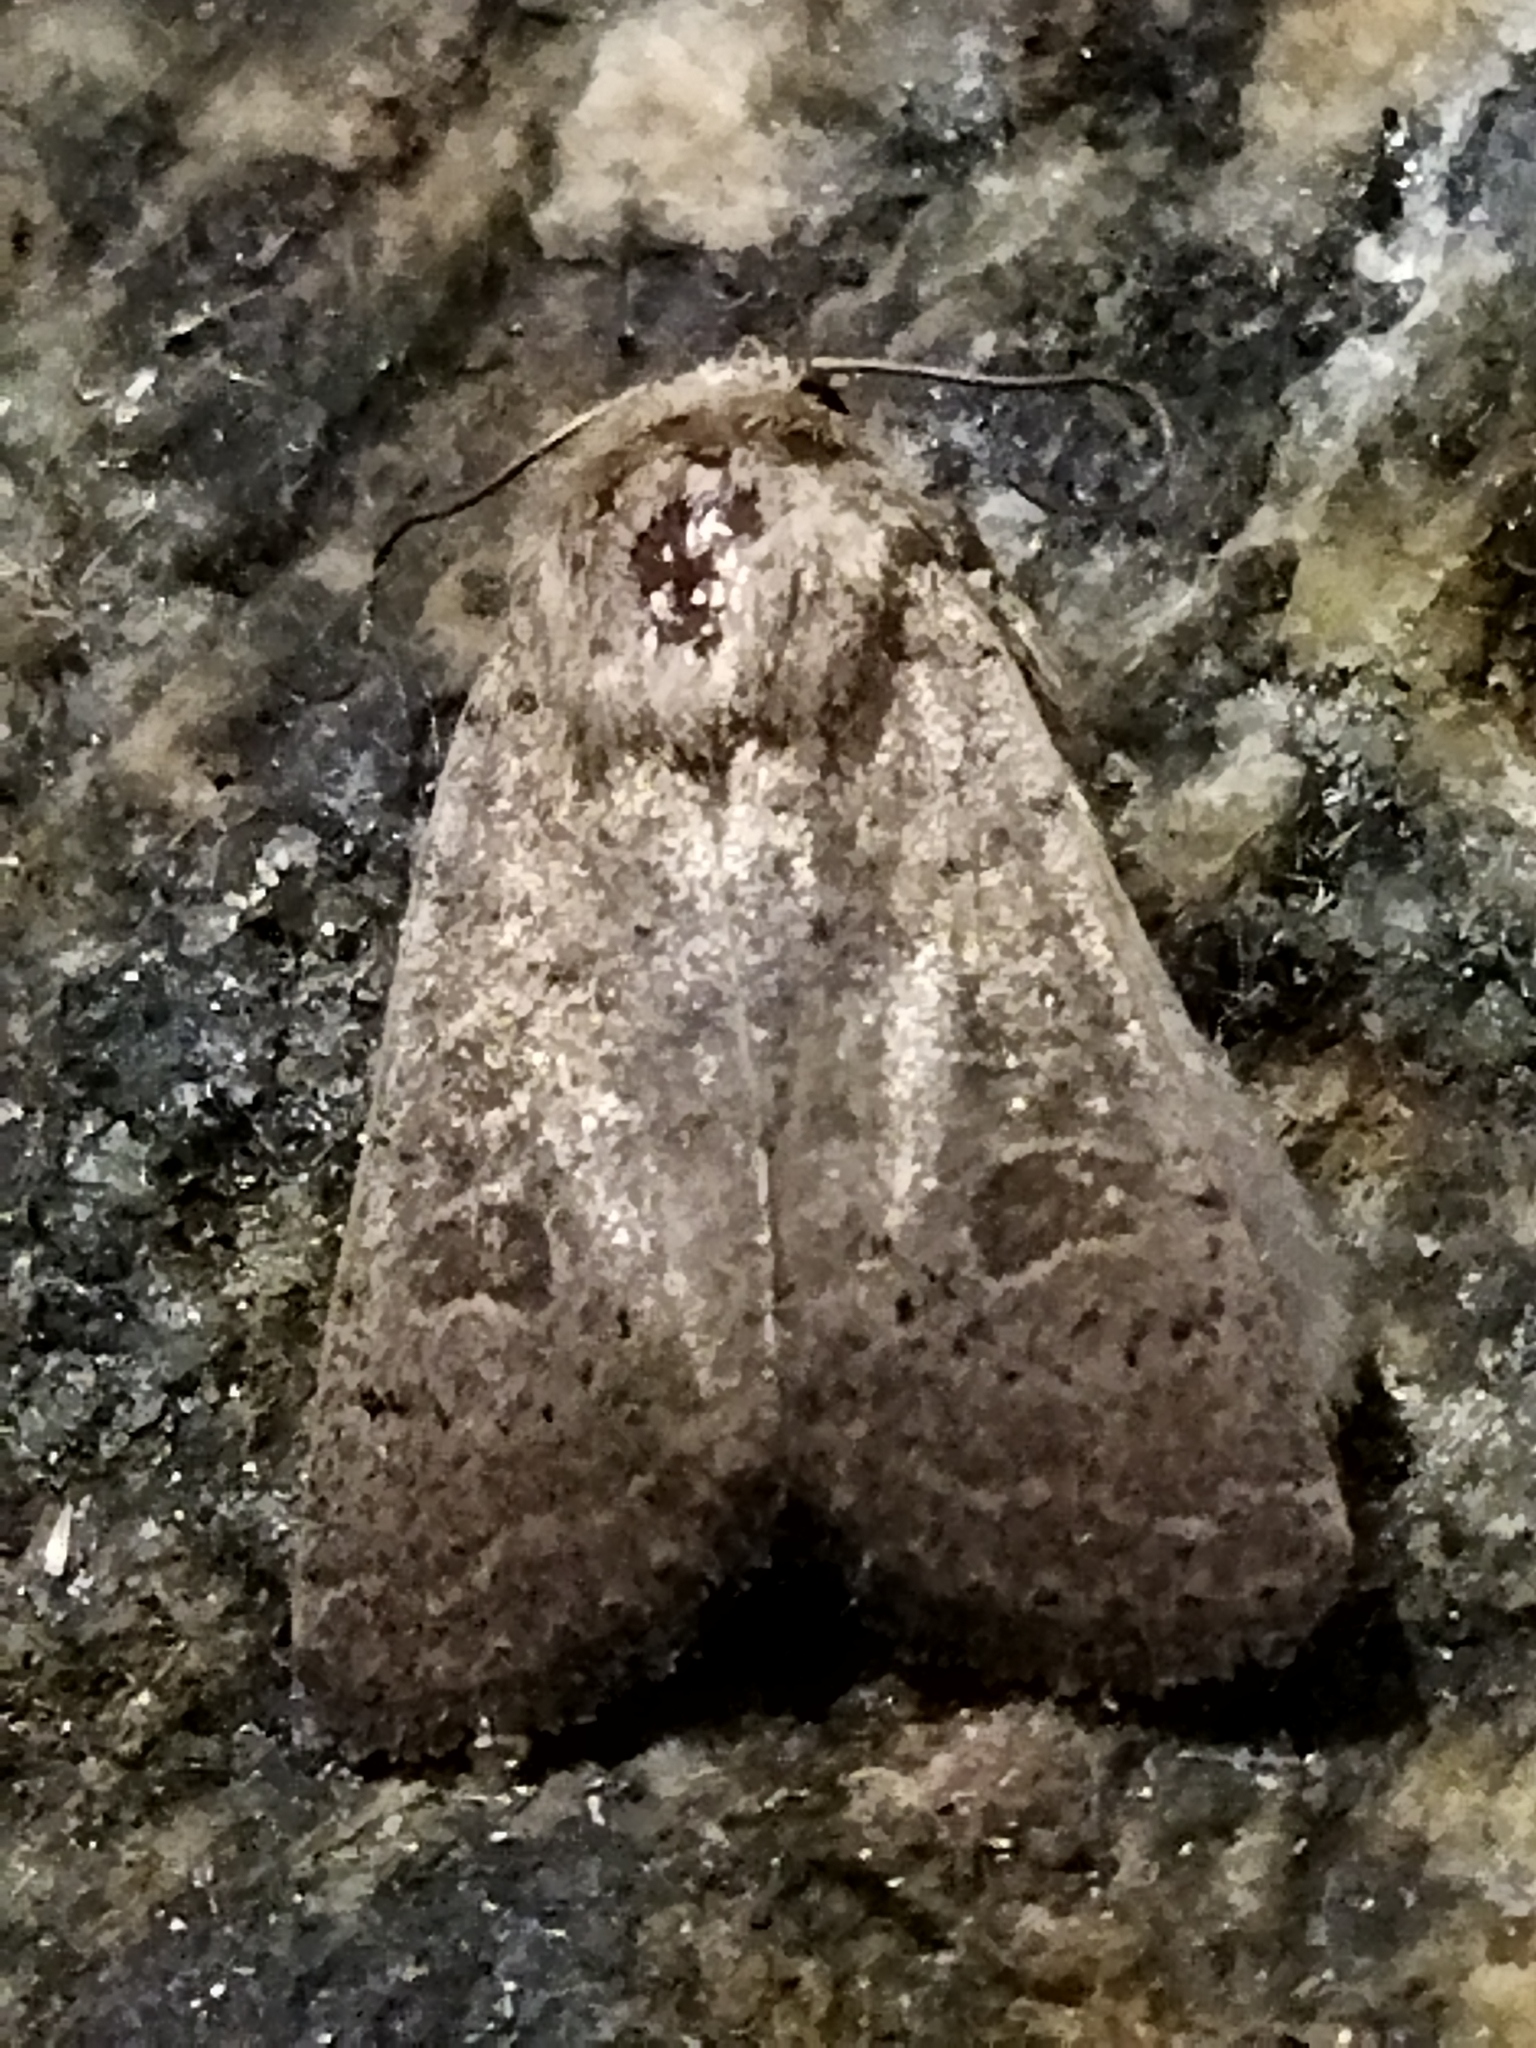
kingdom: Animalia
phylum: Arthropoda
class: Insecta
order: Lepidoptera
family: Noctuidae
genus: Hoplodrina
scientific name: Hoplodrina ambigua
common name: Vine's rustic
